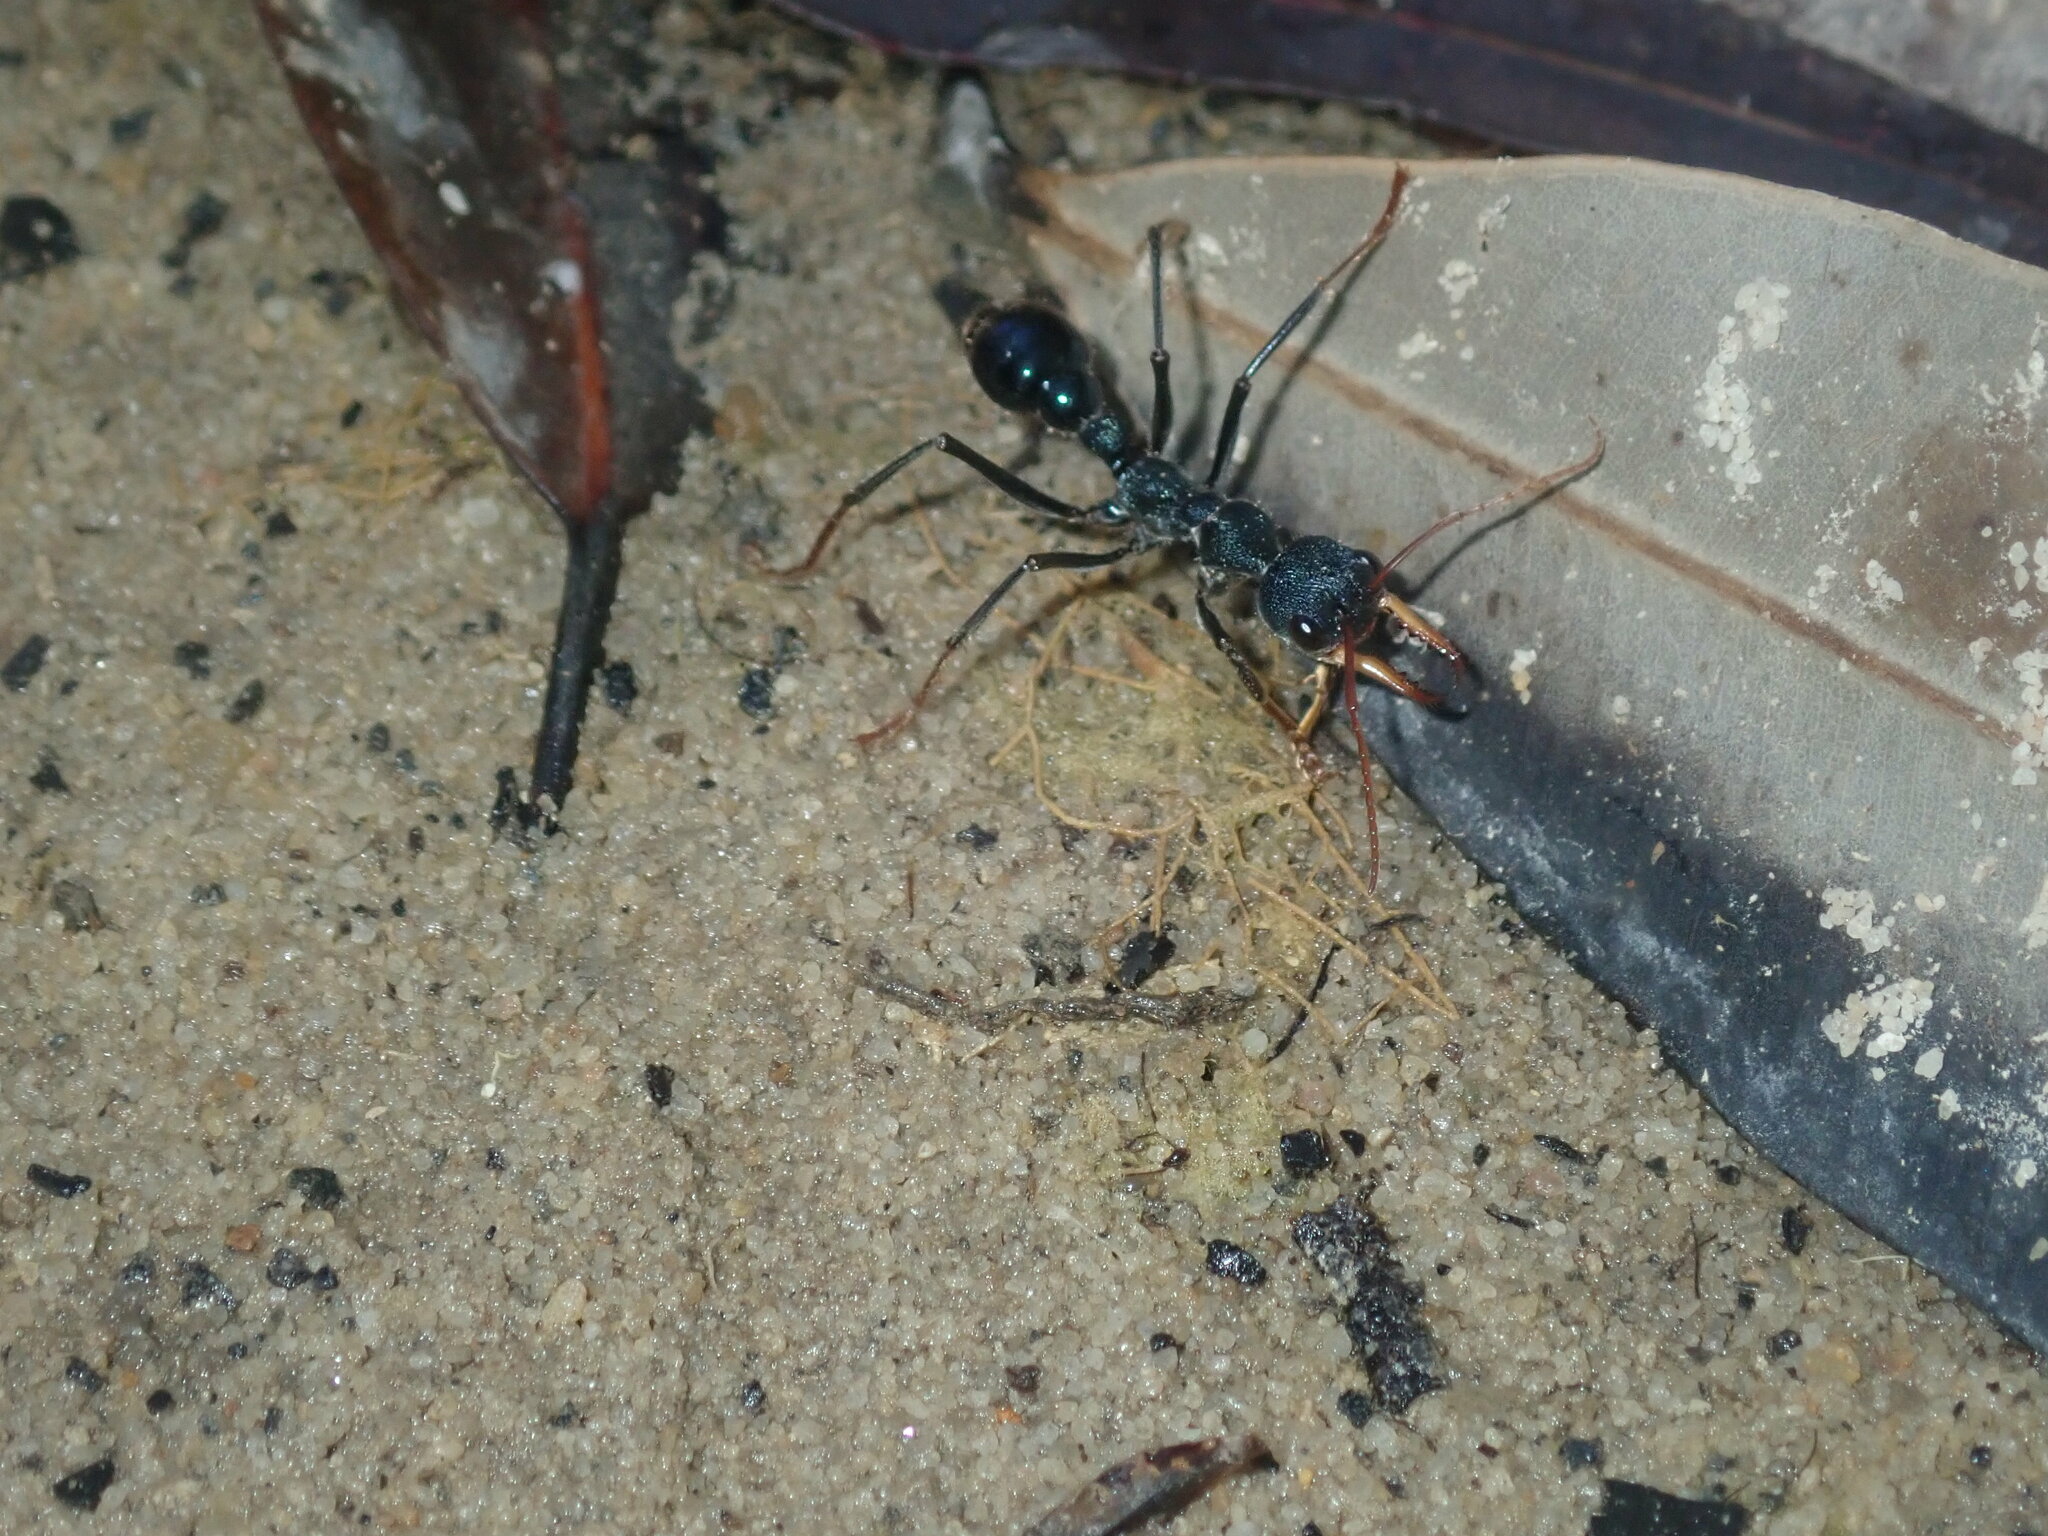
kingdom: Animalia
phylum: Arthropoda
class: Insecta
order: Hymenoptera
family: Formicidae
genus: Myrmecia
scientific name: Myrmecia tarsata
